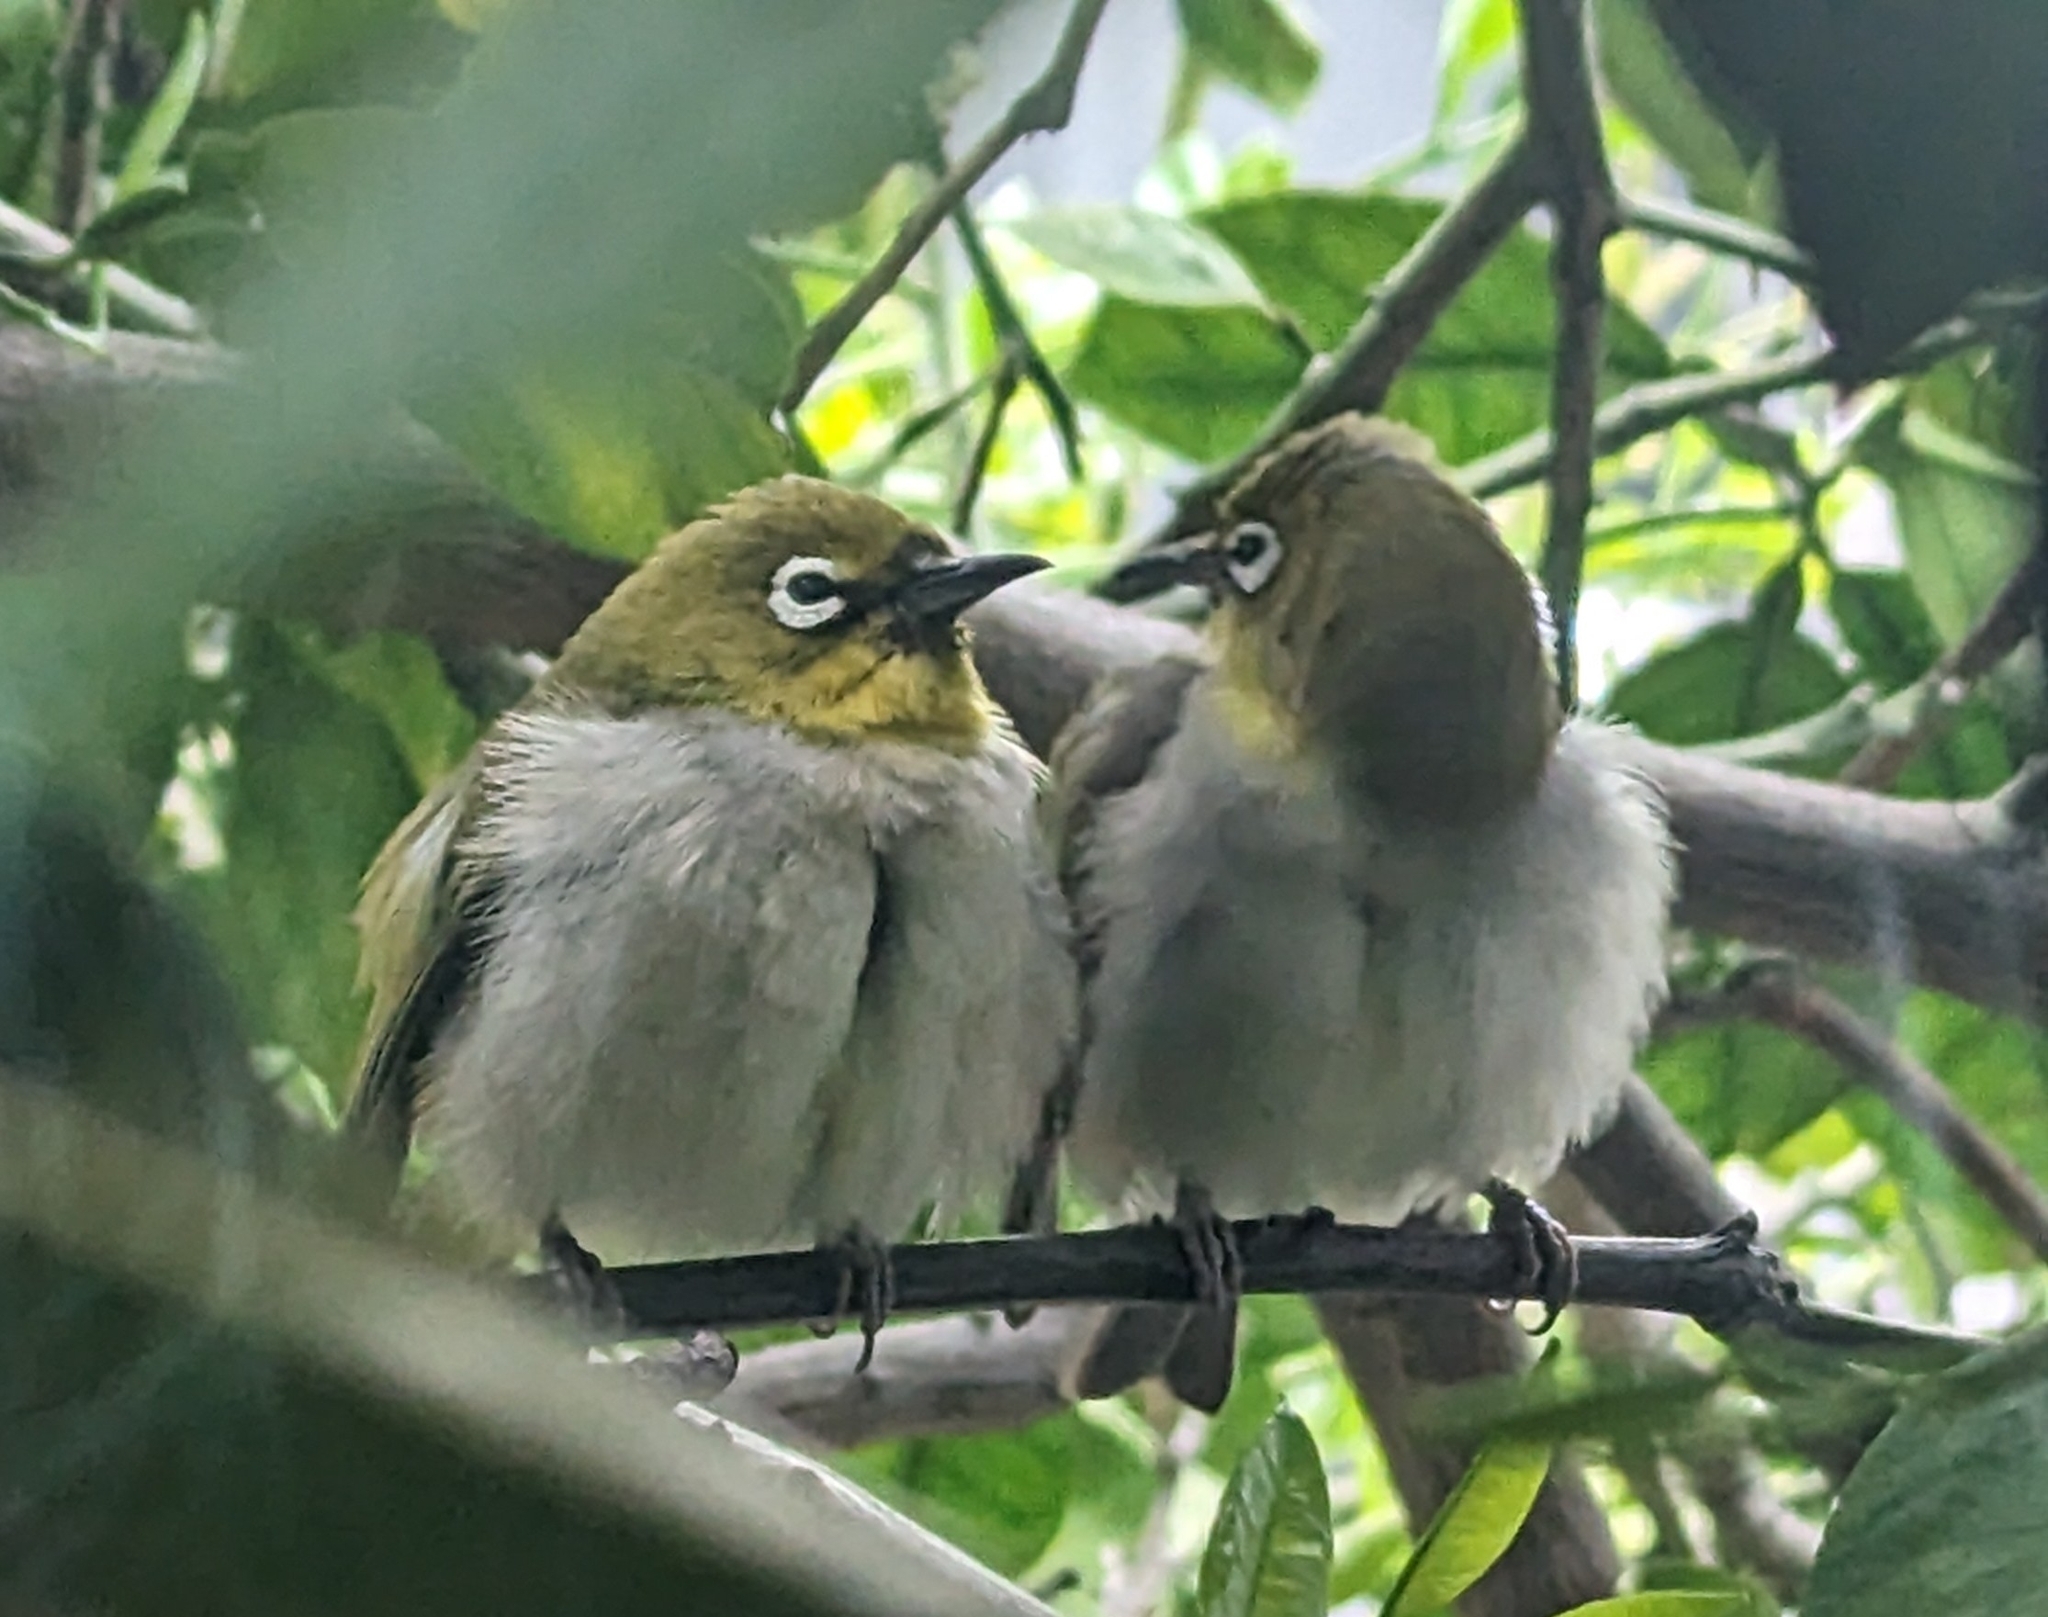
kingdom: Animalia
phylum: Chordata
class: Aves
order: Passeriformes
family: Zosteropidae
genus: Zosterops
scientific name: Zosterops simplex
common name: Swinhoe's white-eye
